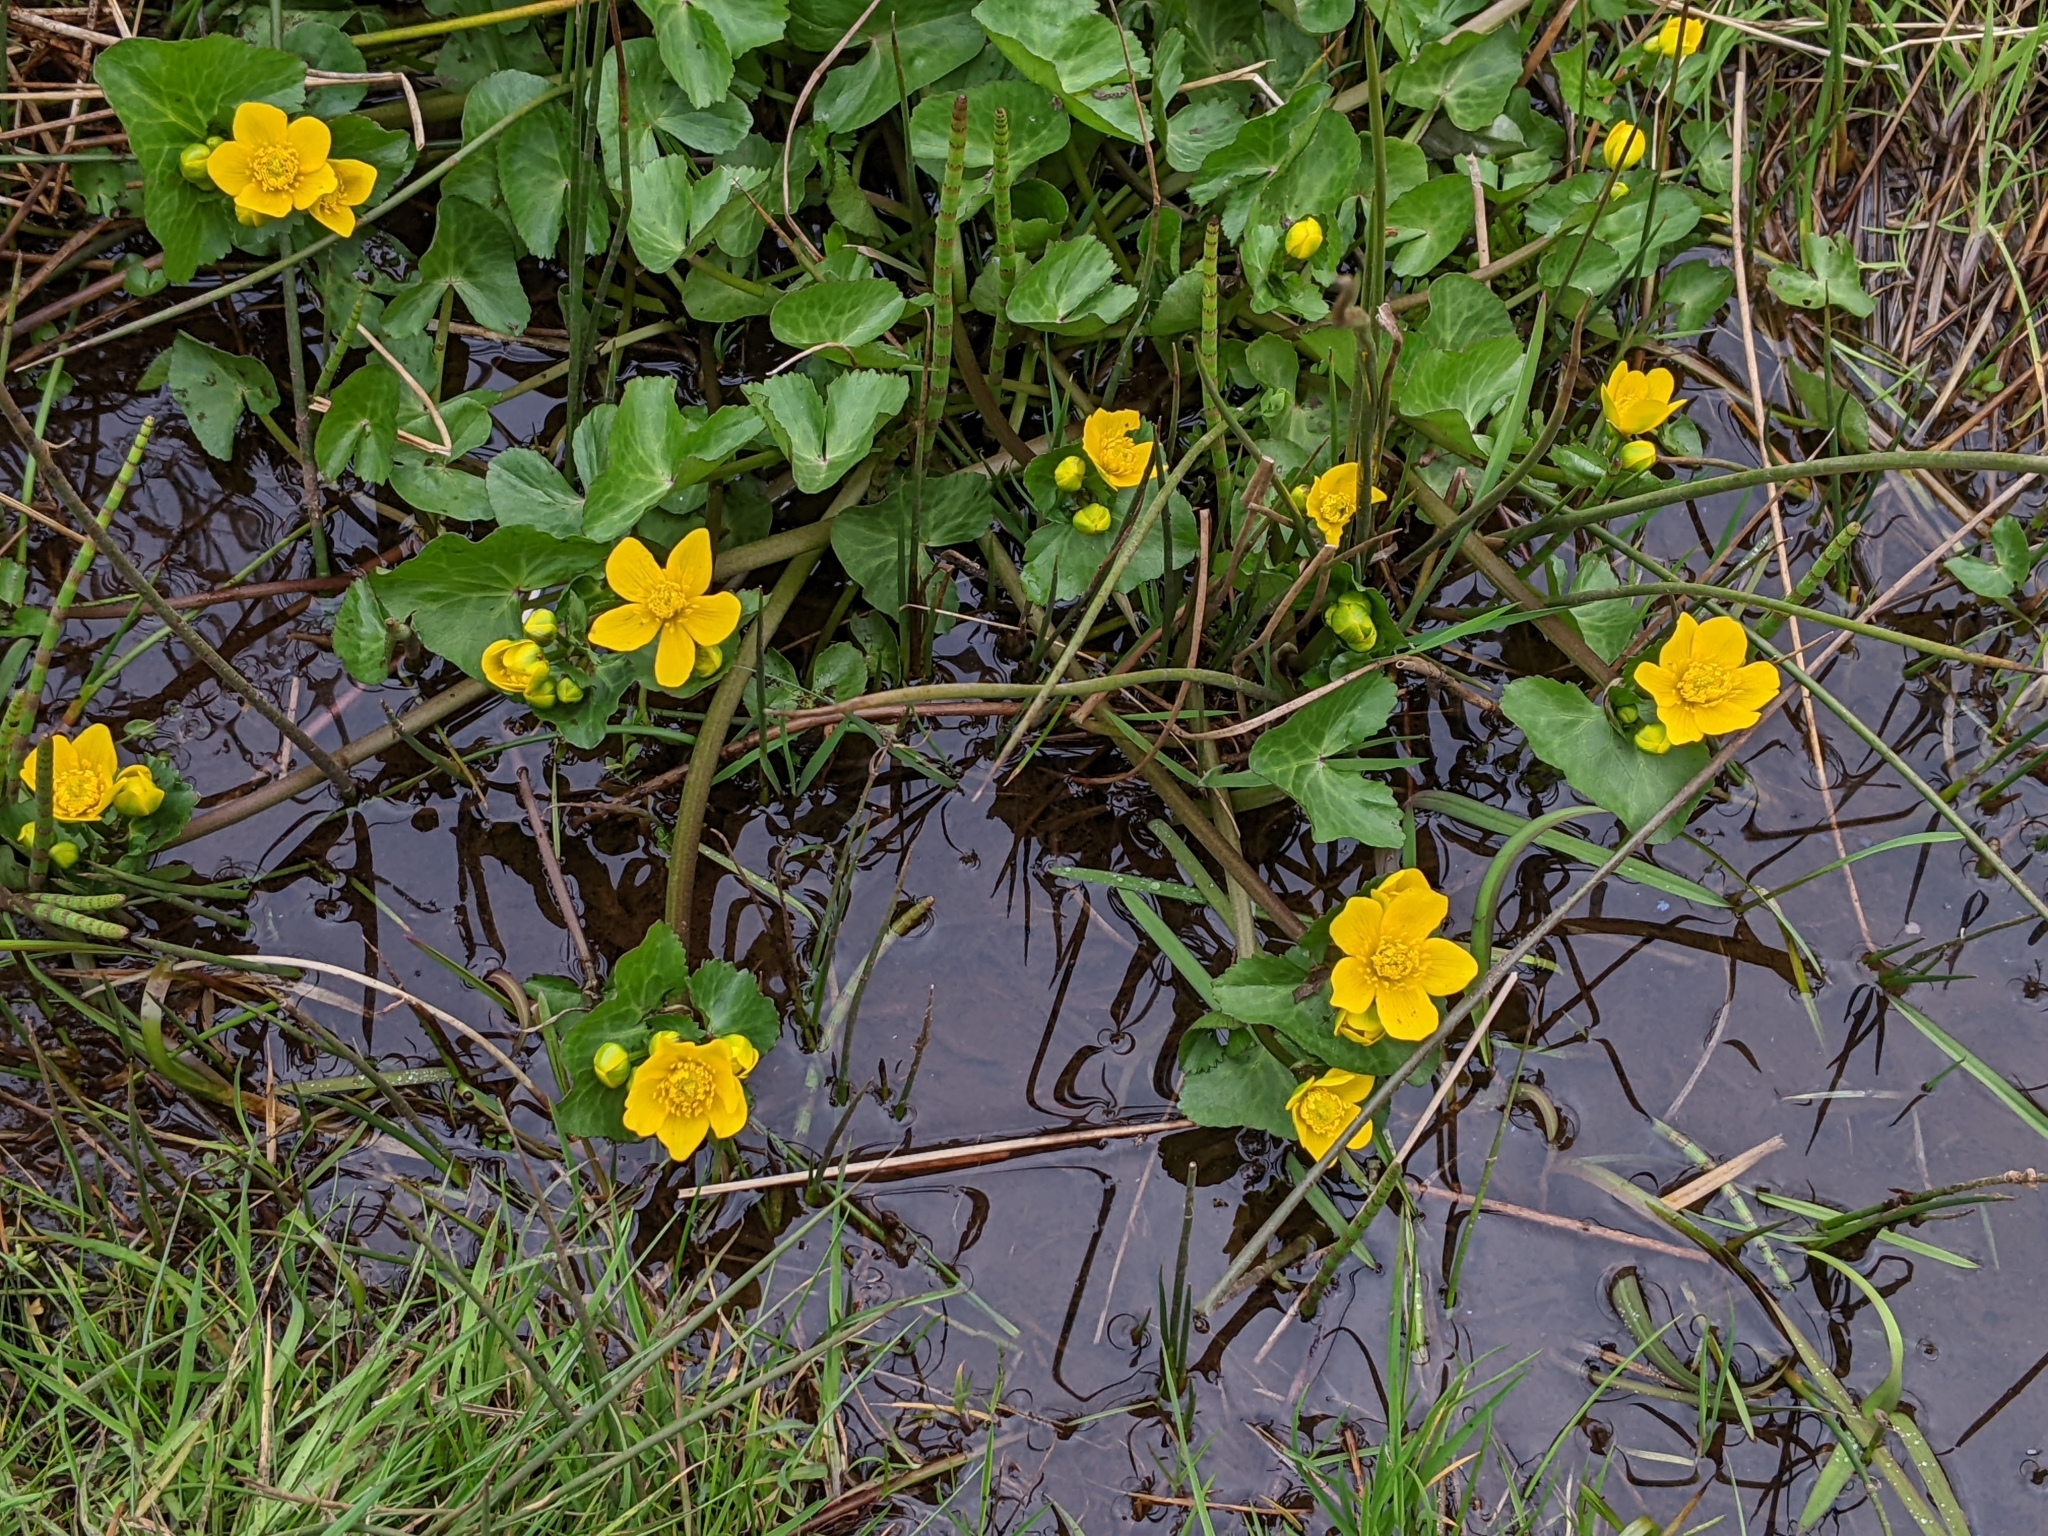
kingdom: Plantae
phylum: Tracheophyta
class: Magnoliopsida
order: Ranunculales
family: Ranunculaceae
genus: Caltha
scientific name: Caltha palustris
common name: Marsh marigold
